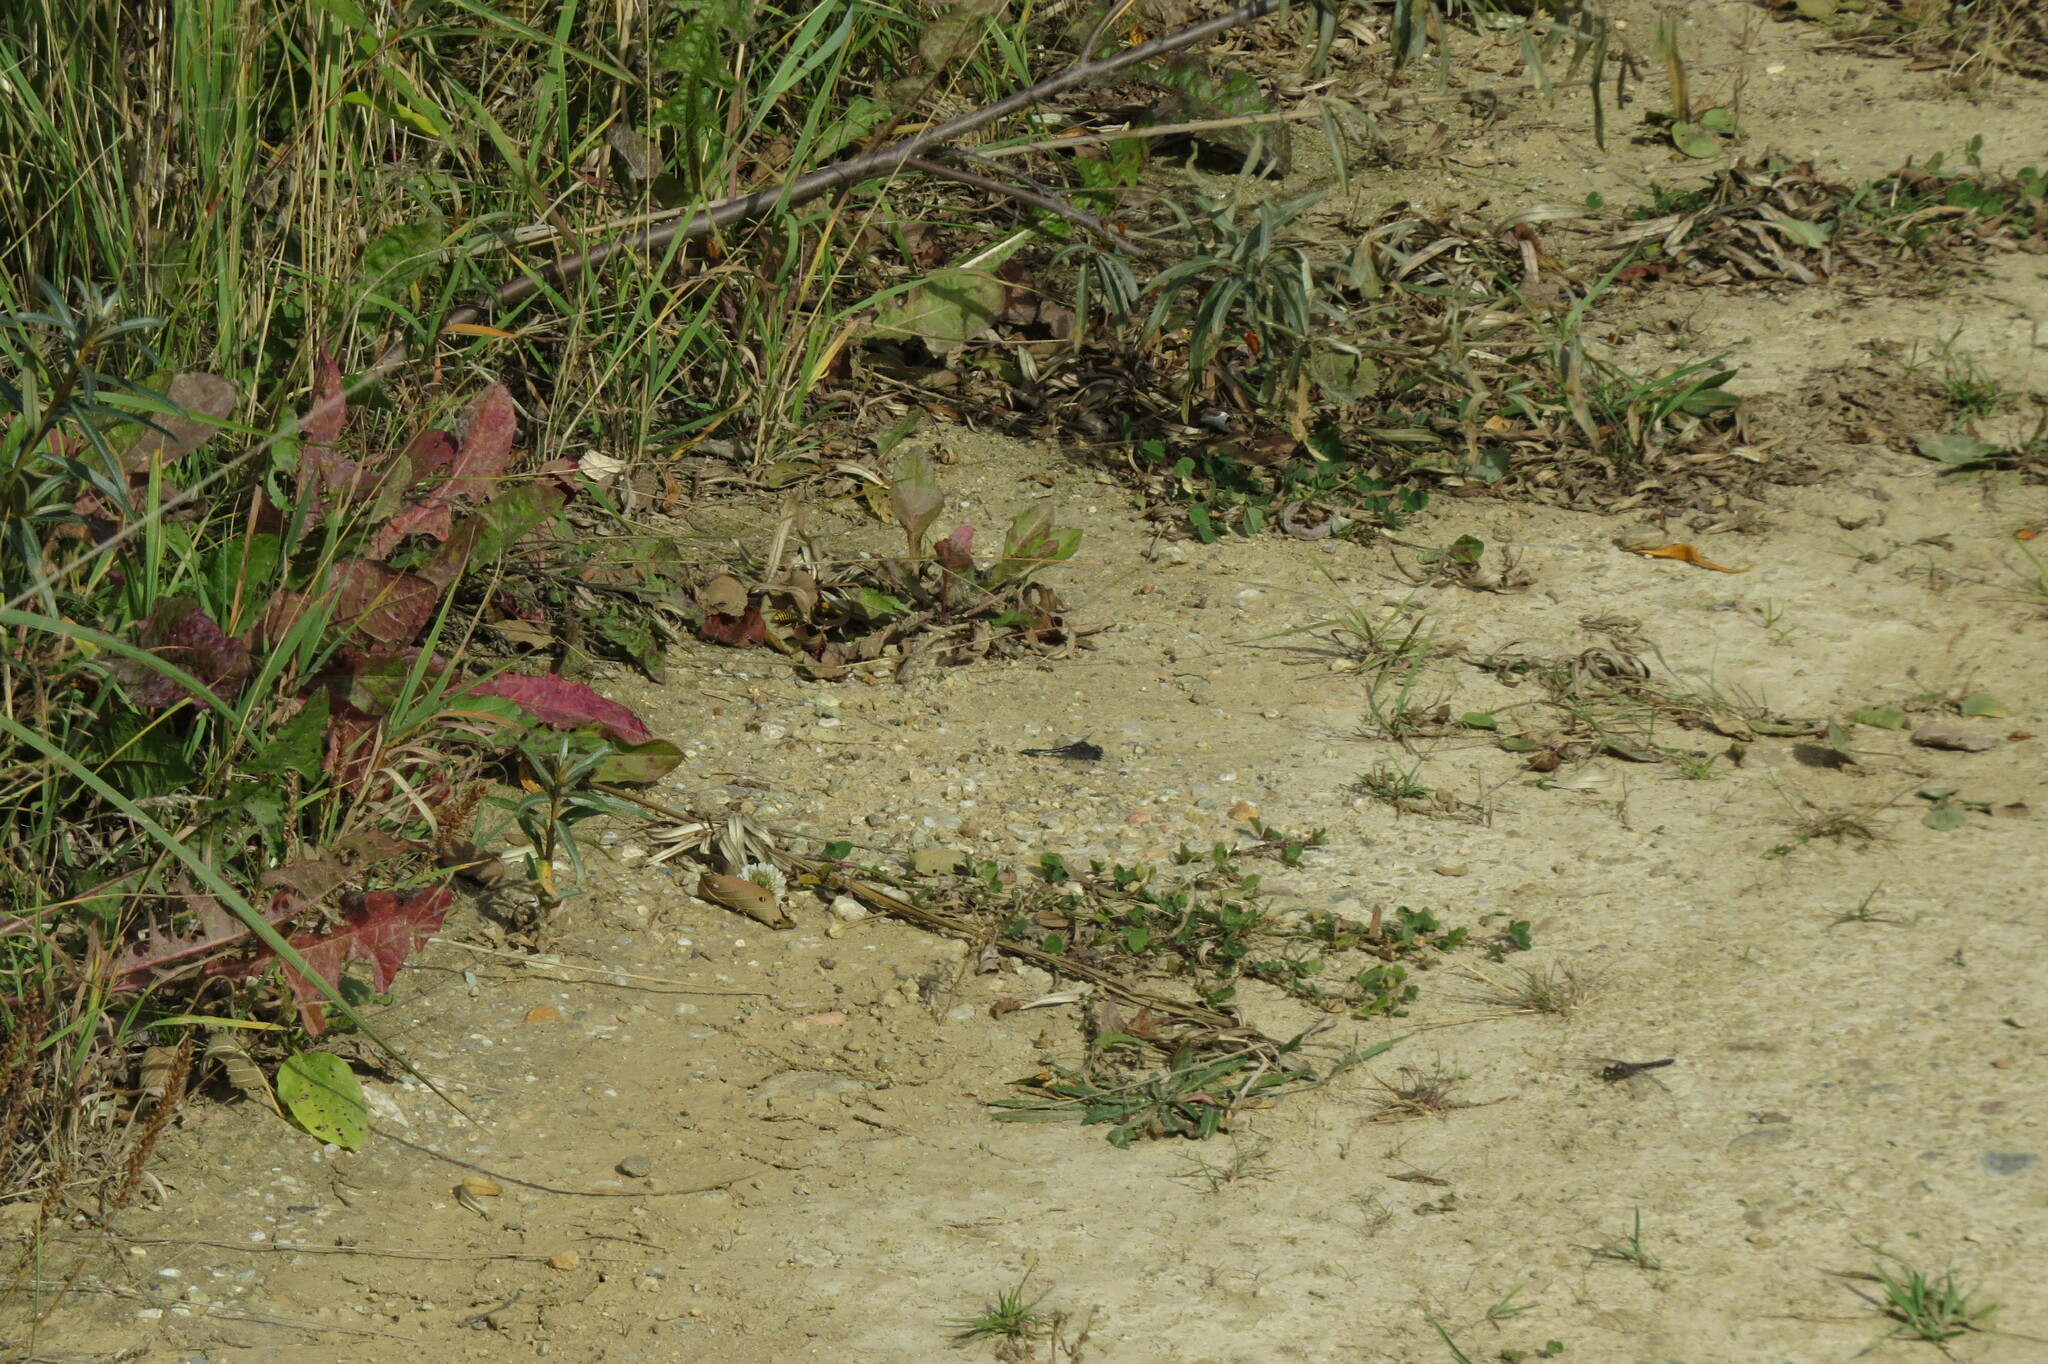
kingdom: Animalia
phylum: Arthropoda
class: Insecta
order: Odonata
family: Libellulidae
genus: Sympetrum
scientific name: Sympetrum danae
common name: Black darter
